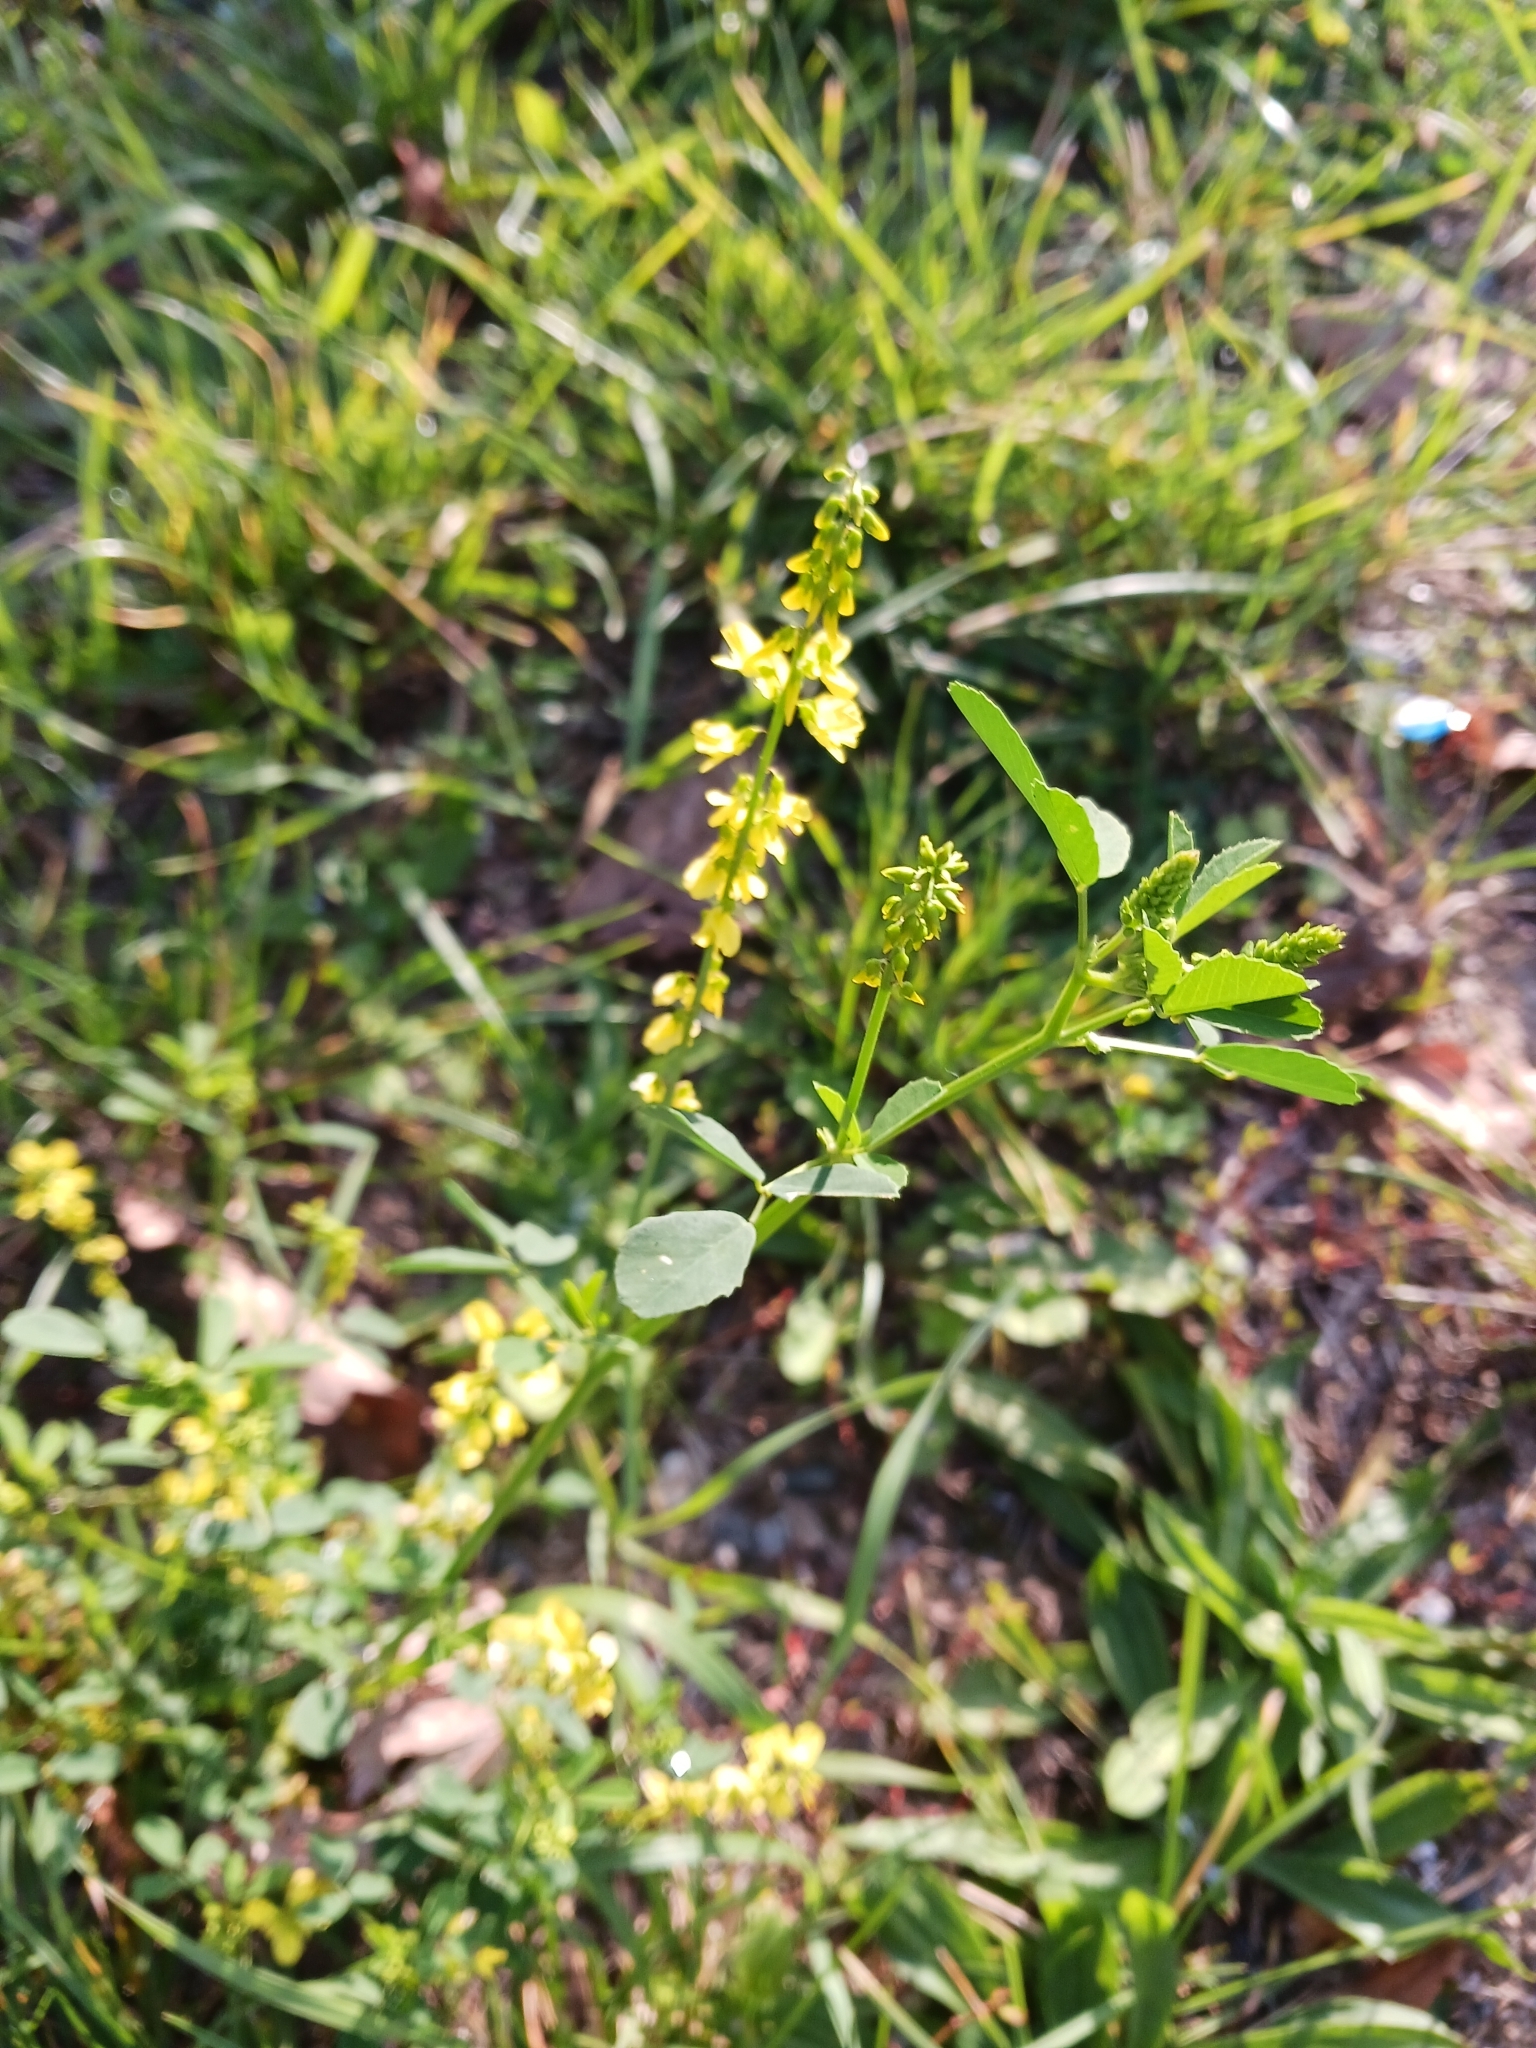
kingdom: Plantae
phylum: Tracheophyta
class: Magnoliopsida
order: Fabales
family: Fabaceae
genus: Melilotus
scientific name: Melilotus officinalis
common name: Sweetclover
